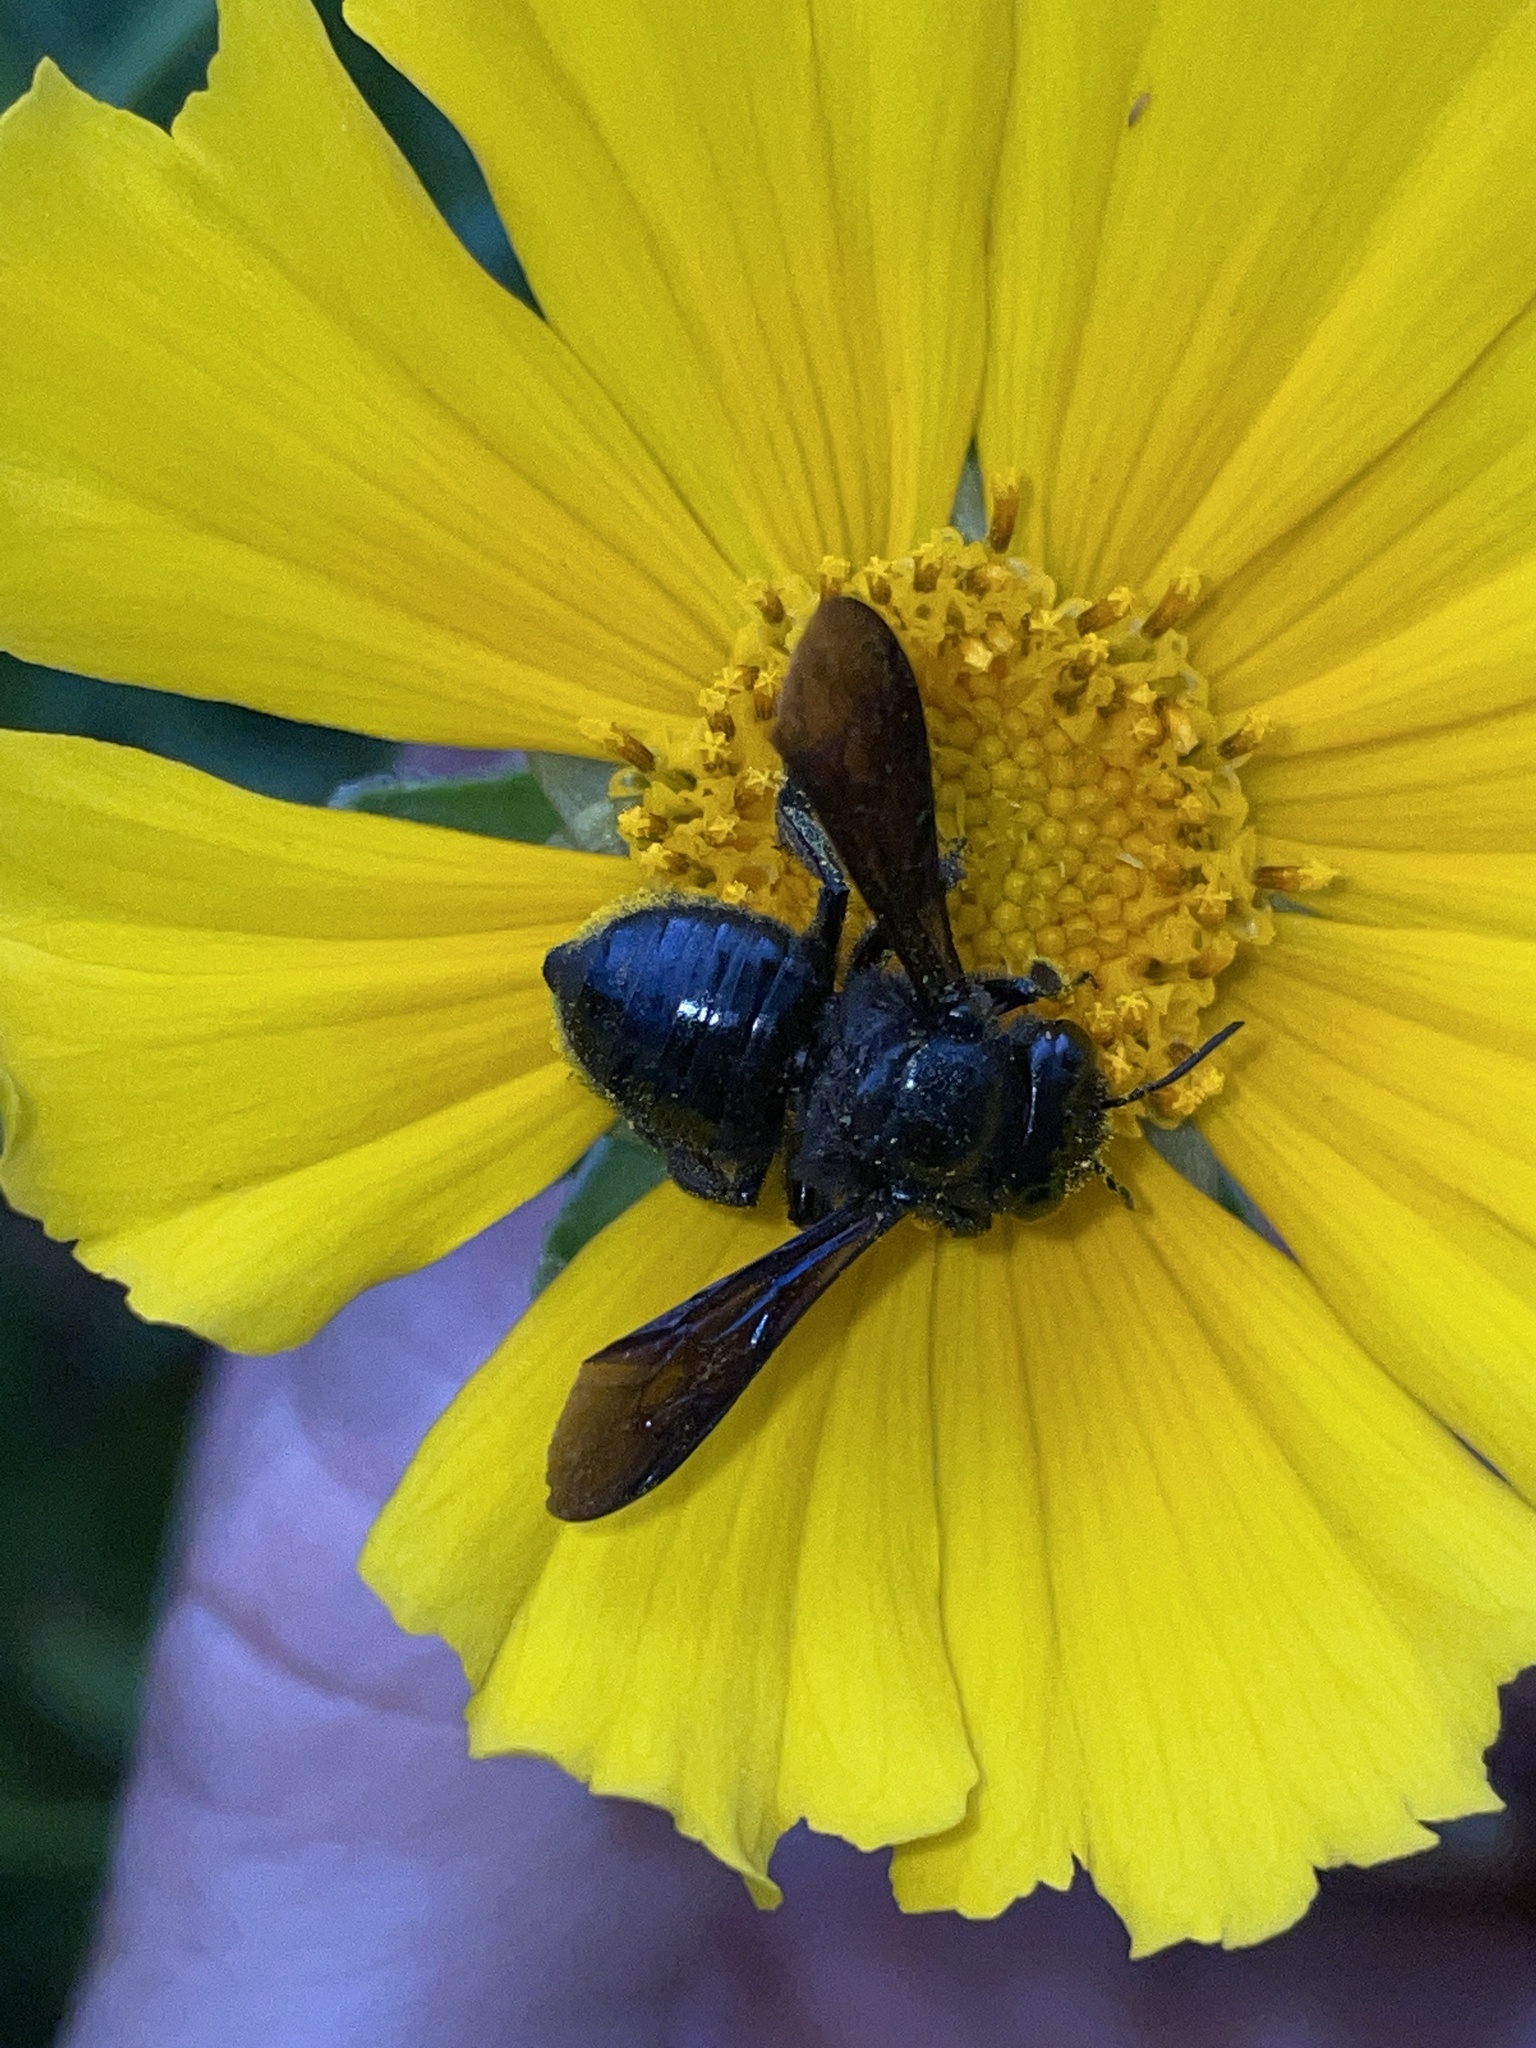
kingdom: Animalia
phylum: Arthropoda
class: Insecta
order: Hymenoptera
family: Megachilidae
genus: Megachile
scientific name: Megachile xylocopoides
